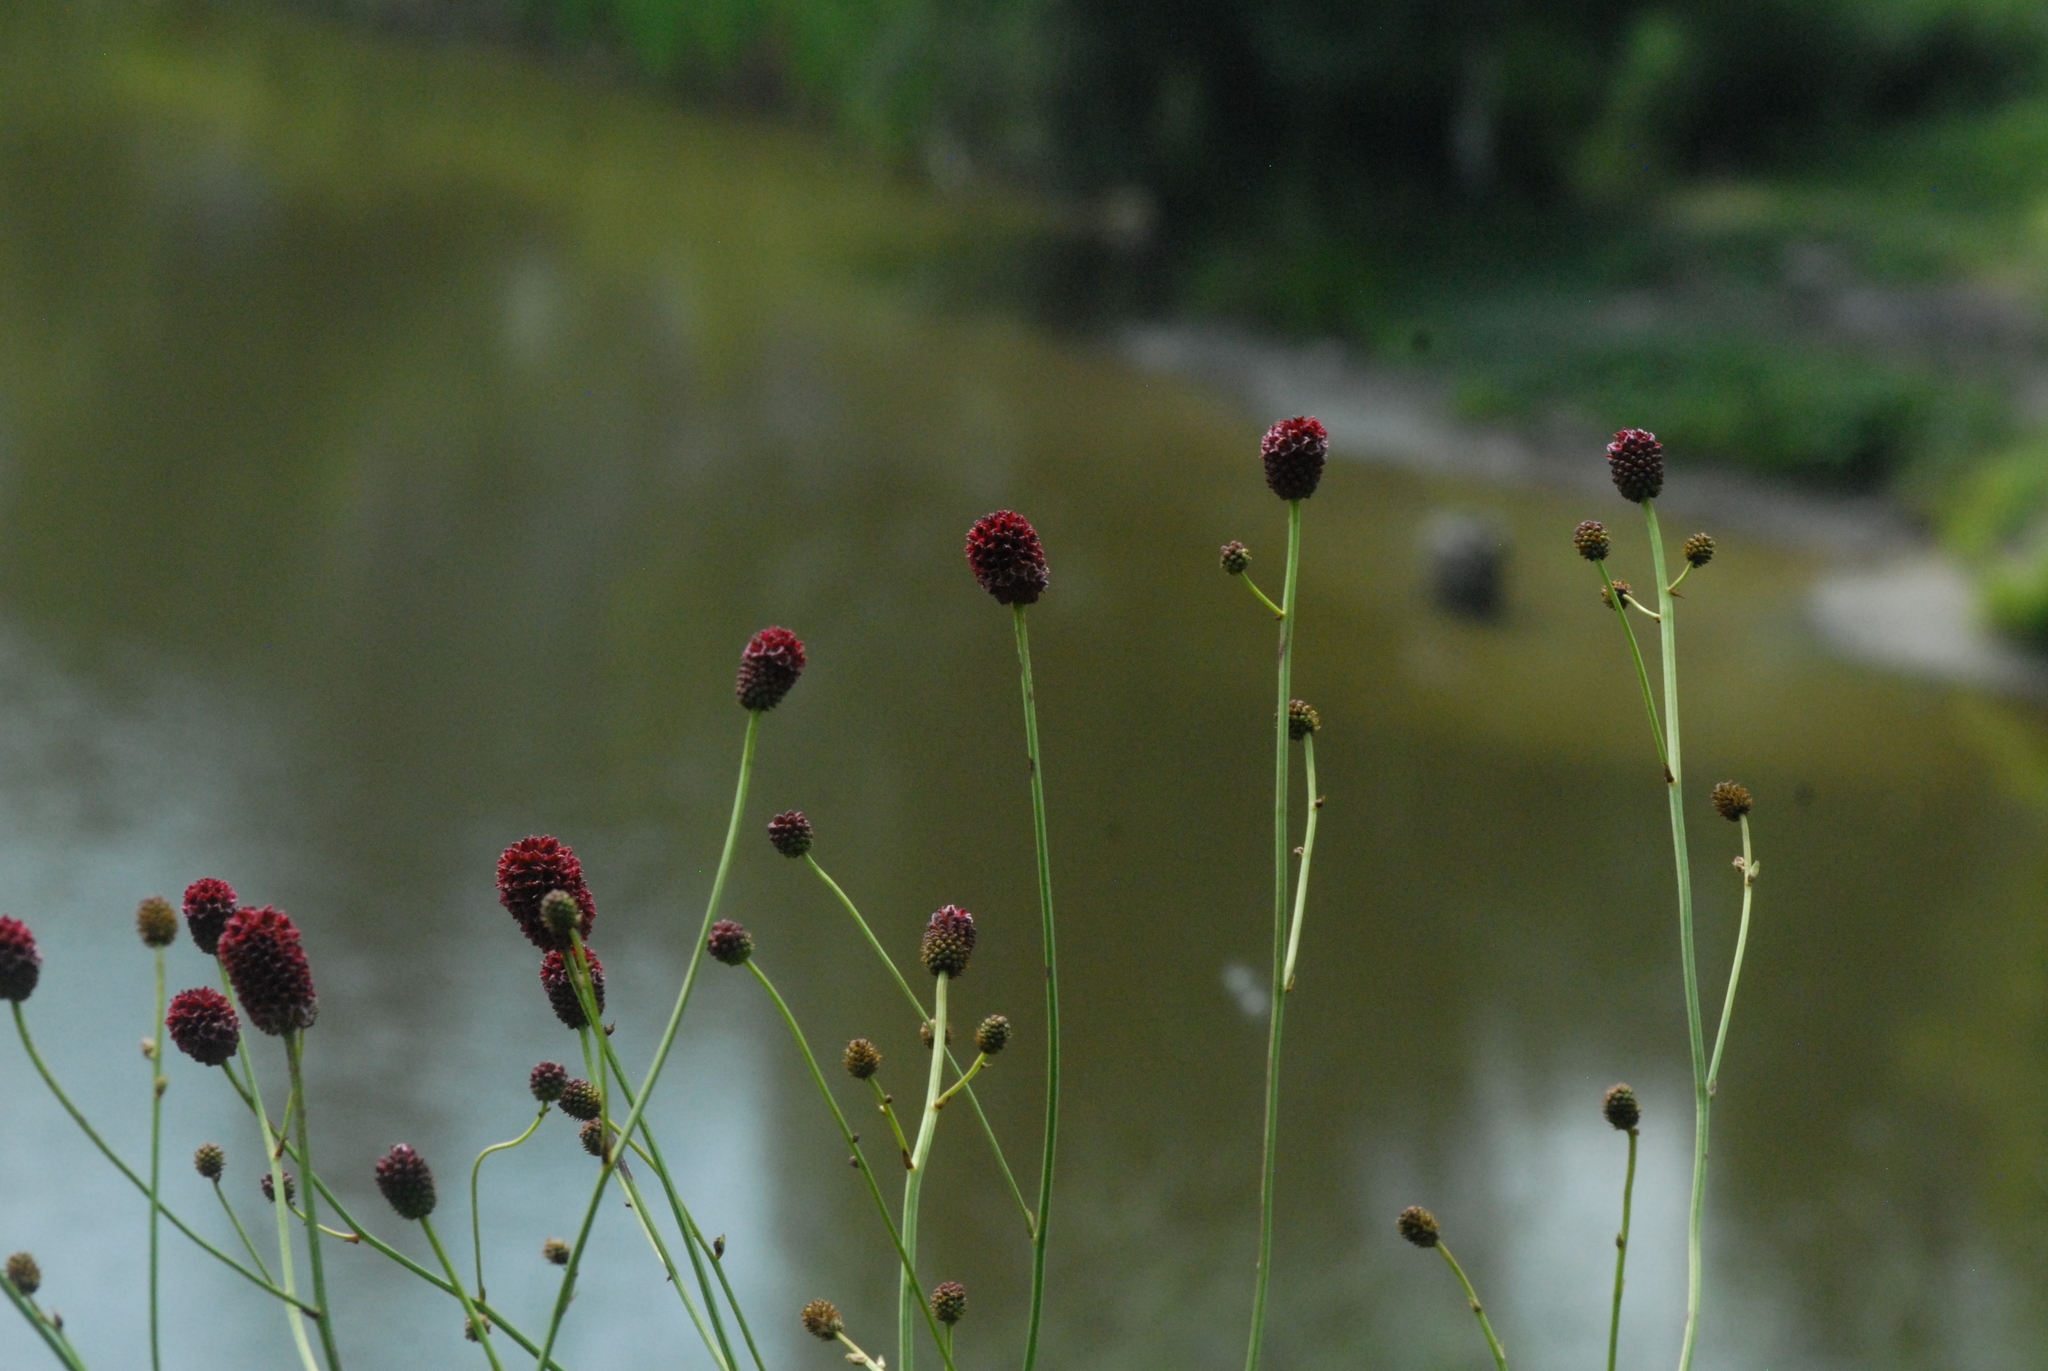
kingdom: Plantae
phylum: Tracheophyta
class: Magnoliopsida
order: Rosales
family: Rosaceae
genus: Sanguisorba
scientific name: Sanguisorba officinalis
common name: Great burnet
